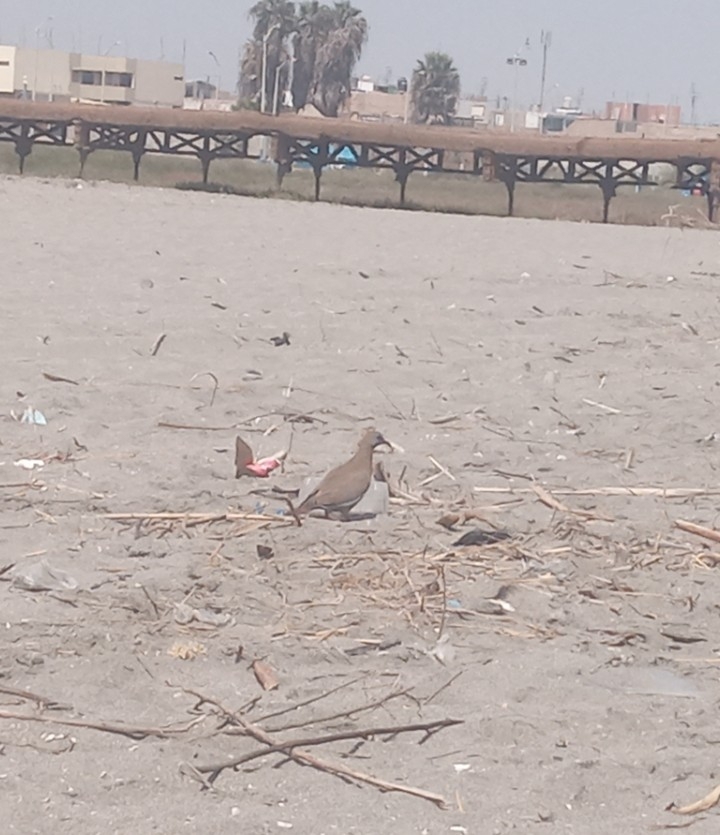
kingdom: Animalia
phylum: Chordata
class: Aves
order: Columbiformes
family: Columbidae
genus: Zenaida
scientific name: Zenaida meloda
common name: West peruvian dove
